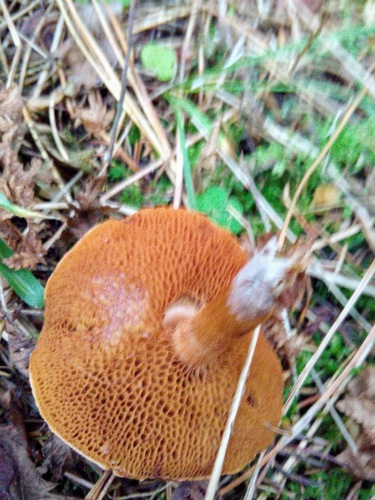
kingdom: Fungi
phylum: Basidiomycota
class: Agaricomycetes
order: Boletales
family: Boletaceae
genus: Chalciporus
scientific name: Chalciporus piperatus
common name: Peppery bolete
